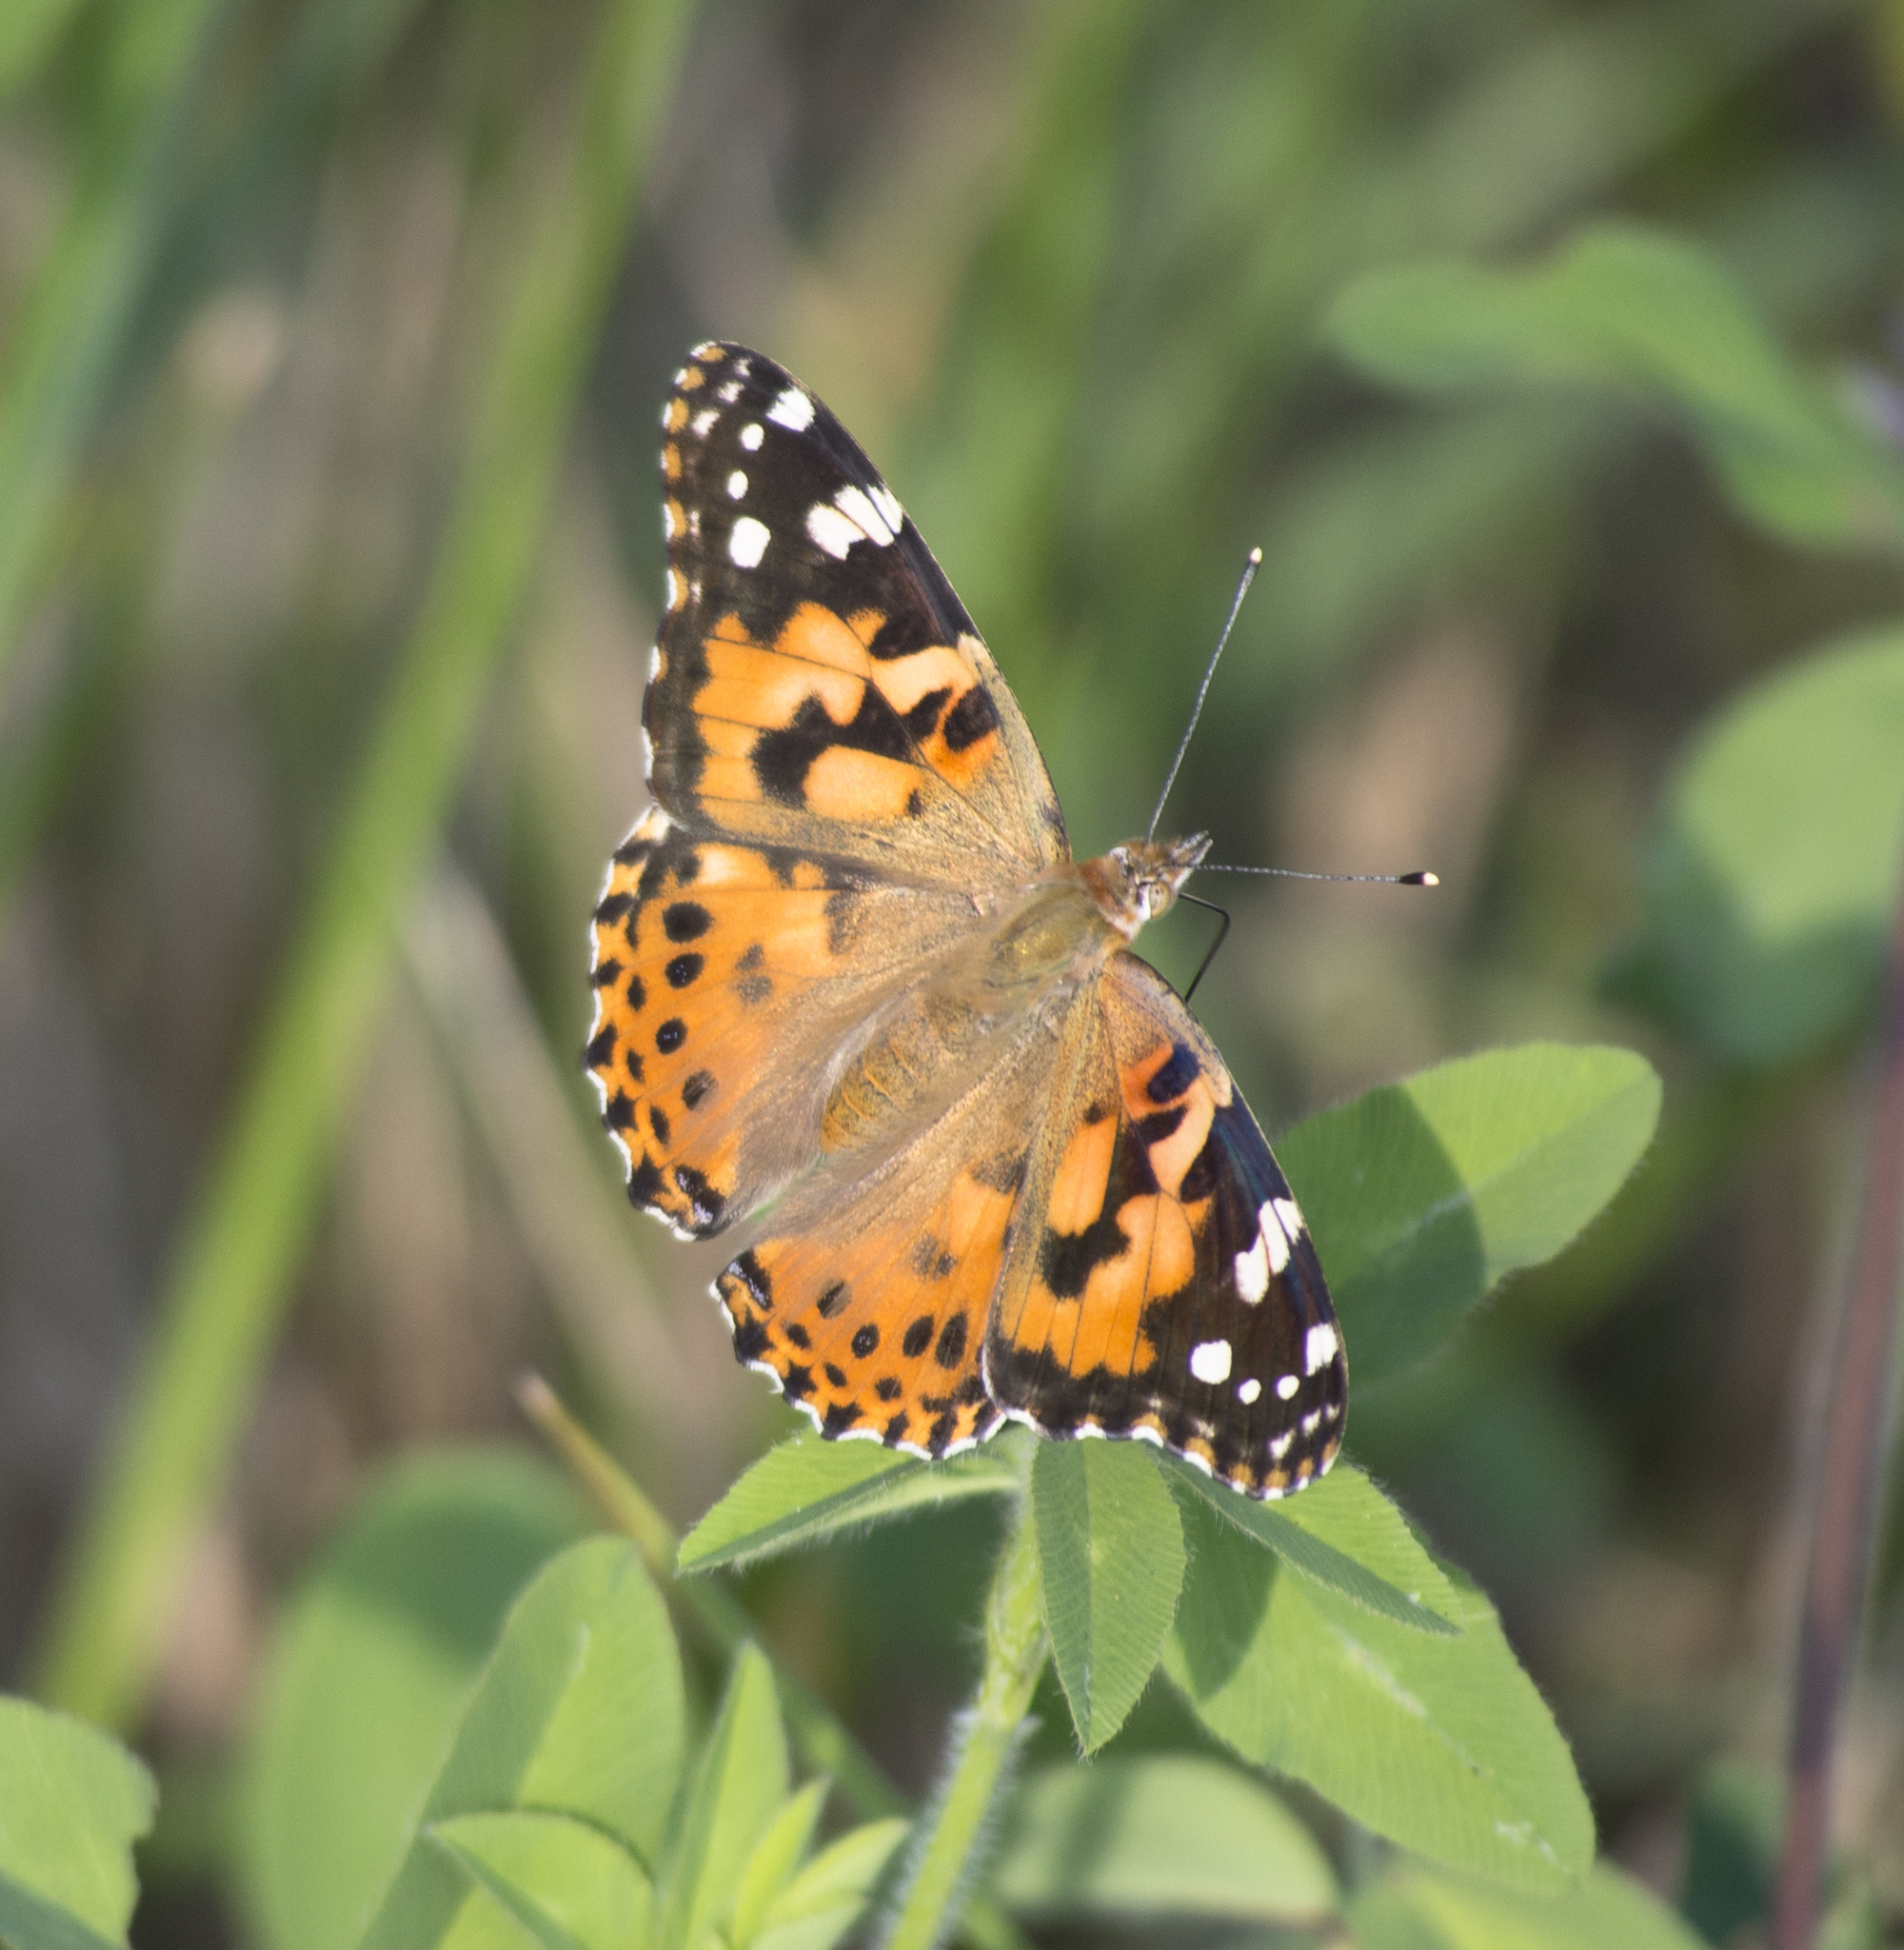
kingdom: Animalia
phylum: Arthropoda
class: Insecta
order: Lepidoptera
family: Nymphalidae
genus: Vanessa
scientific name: Vanessa cardui
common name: Painted lady
